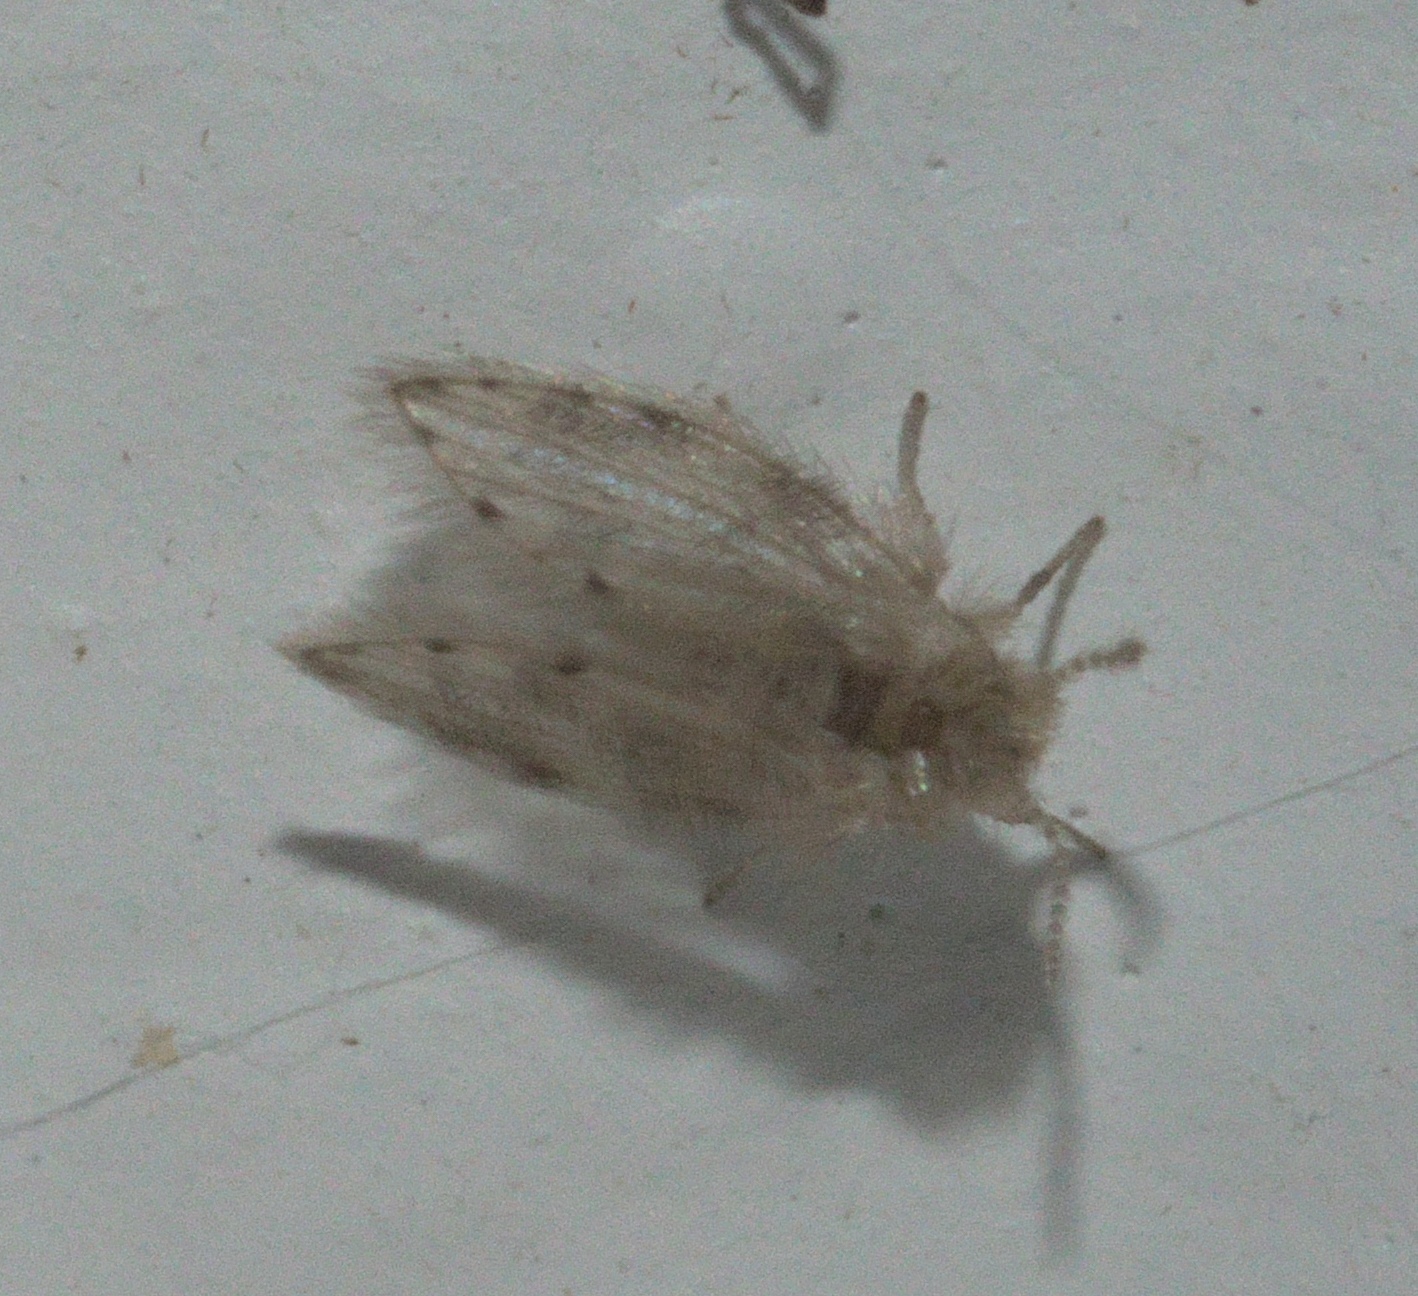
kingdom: Animalia
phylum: Arthropoda
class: Insecta
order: Diptera
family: Psychodidae
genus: Psychoda
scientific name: Psychoda alternata
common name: Moth fly
